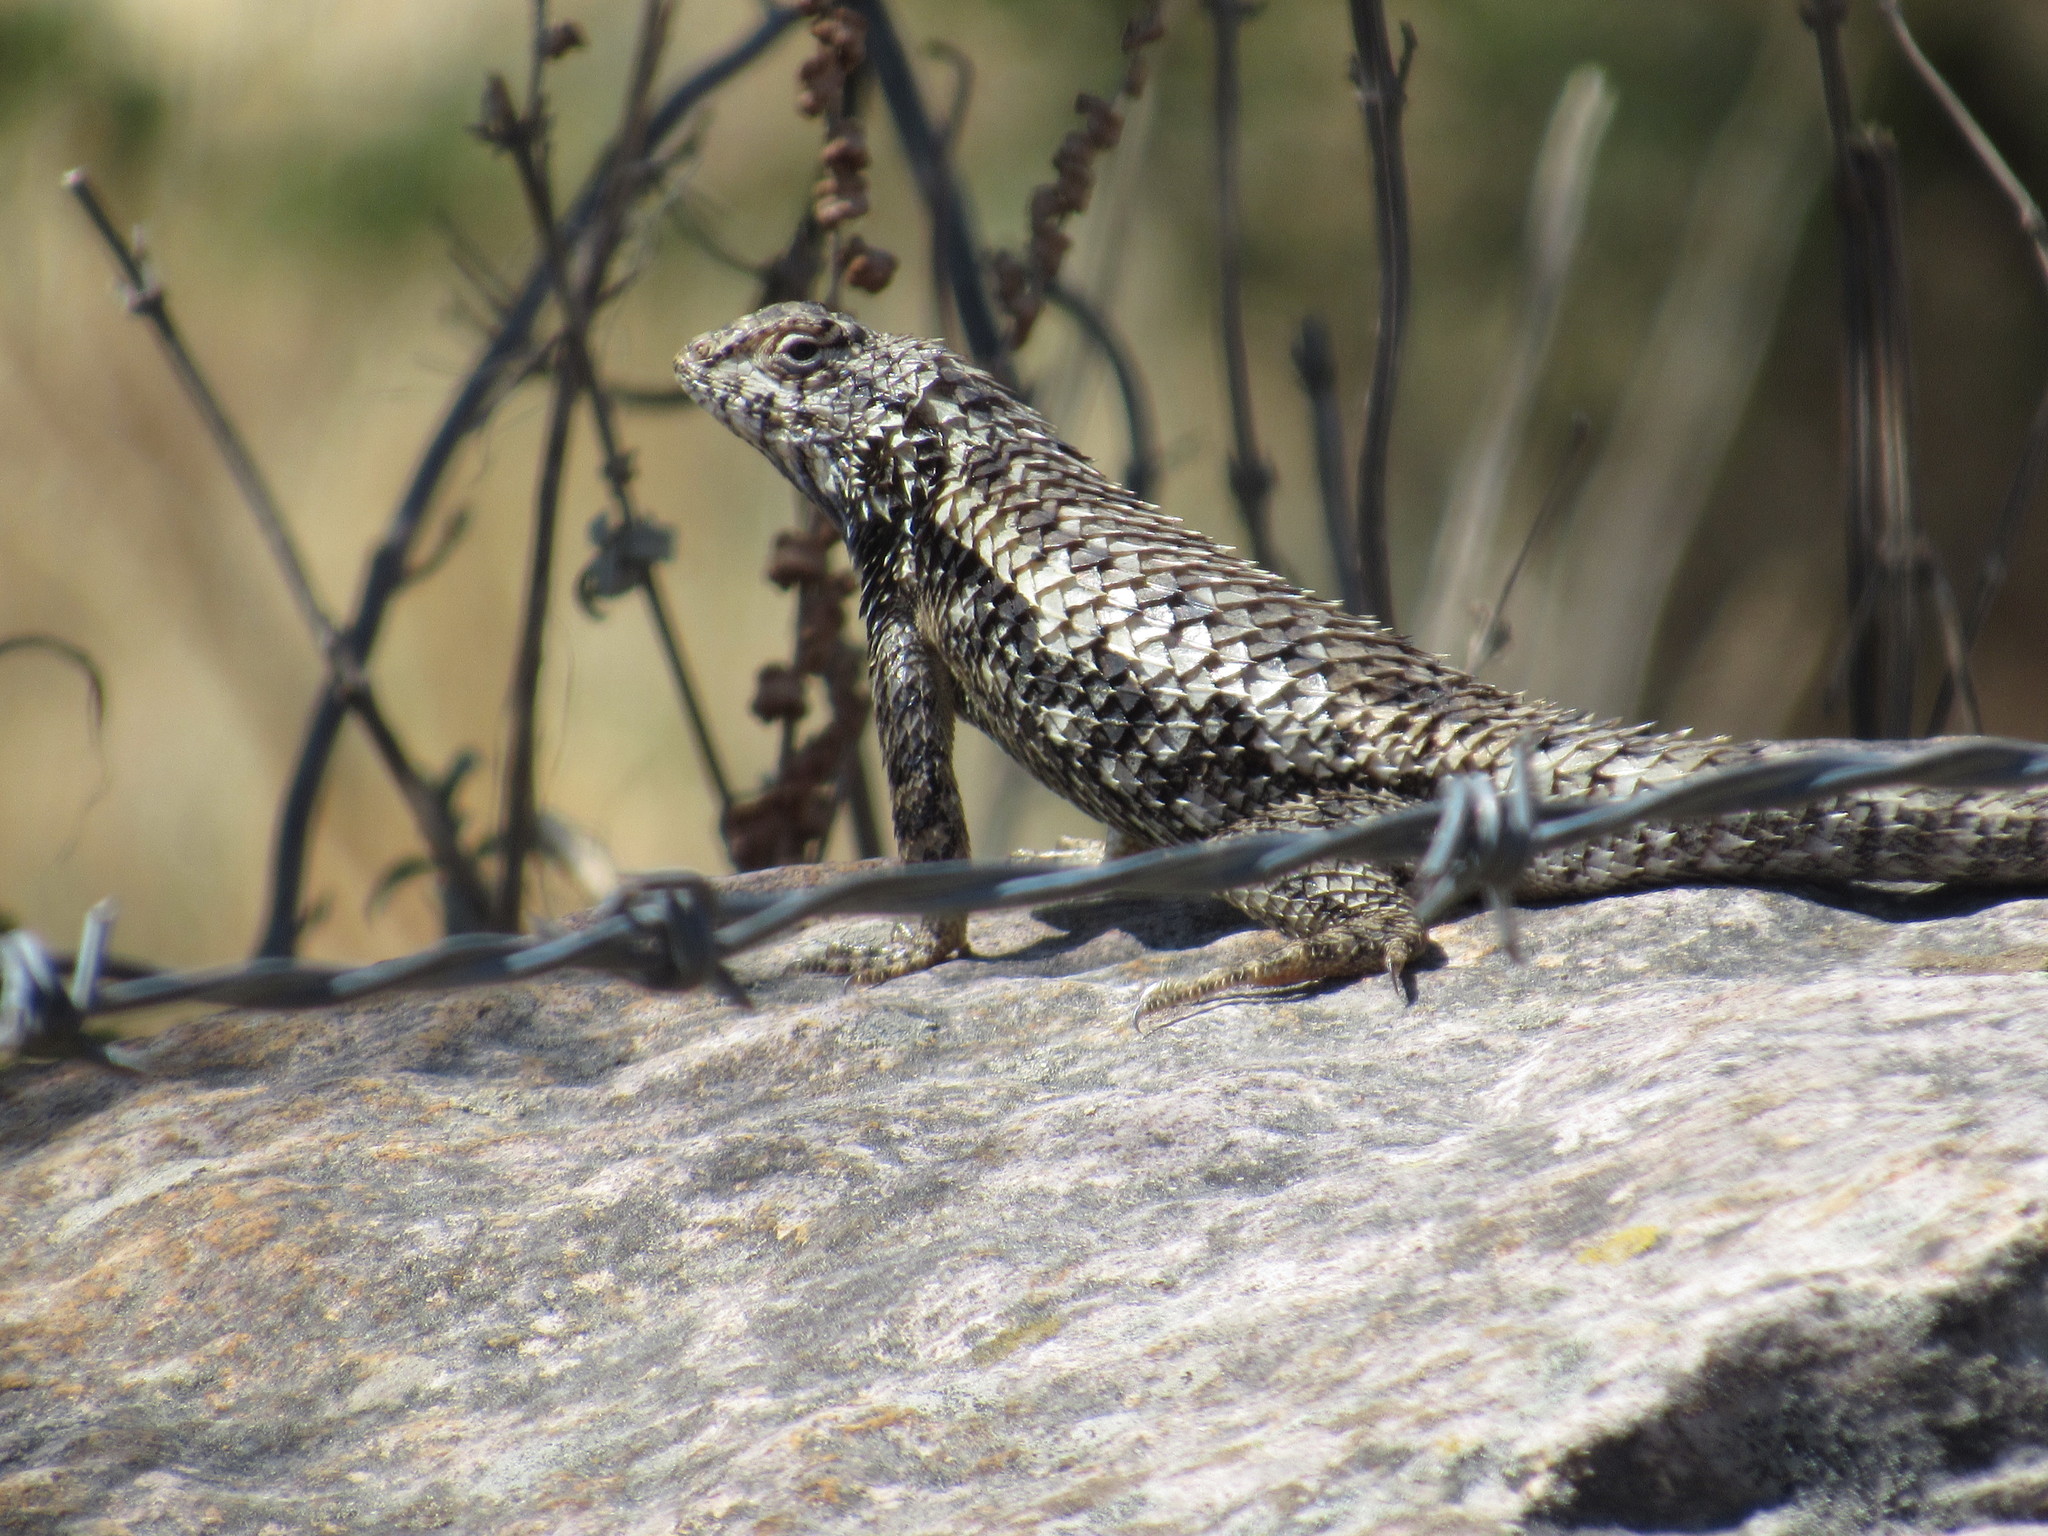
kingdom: Animalia
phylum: Chordata
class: Squamata
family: Phrynosomatidae
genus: Sceloporus
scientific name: Sceloporus spinosus
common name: Blue-spotted spiny lizard [caeruleopunctatus]
